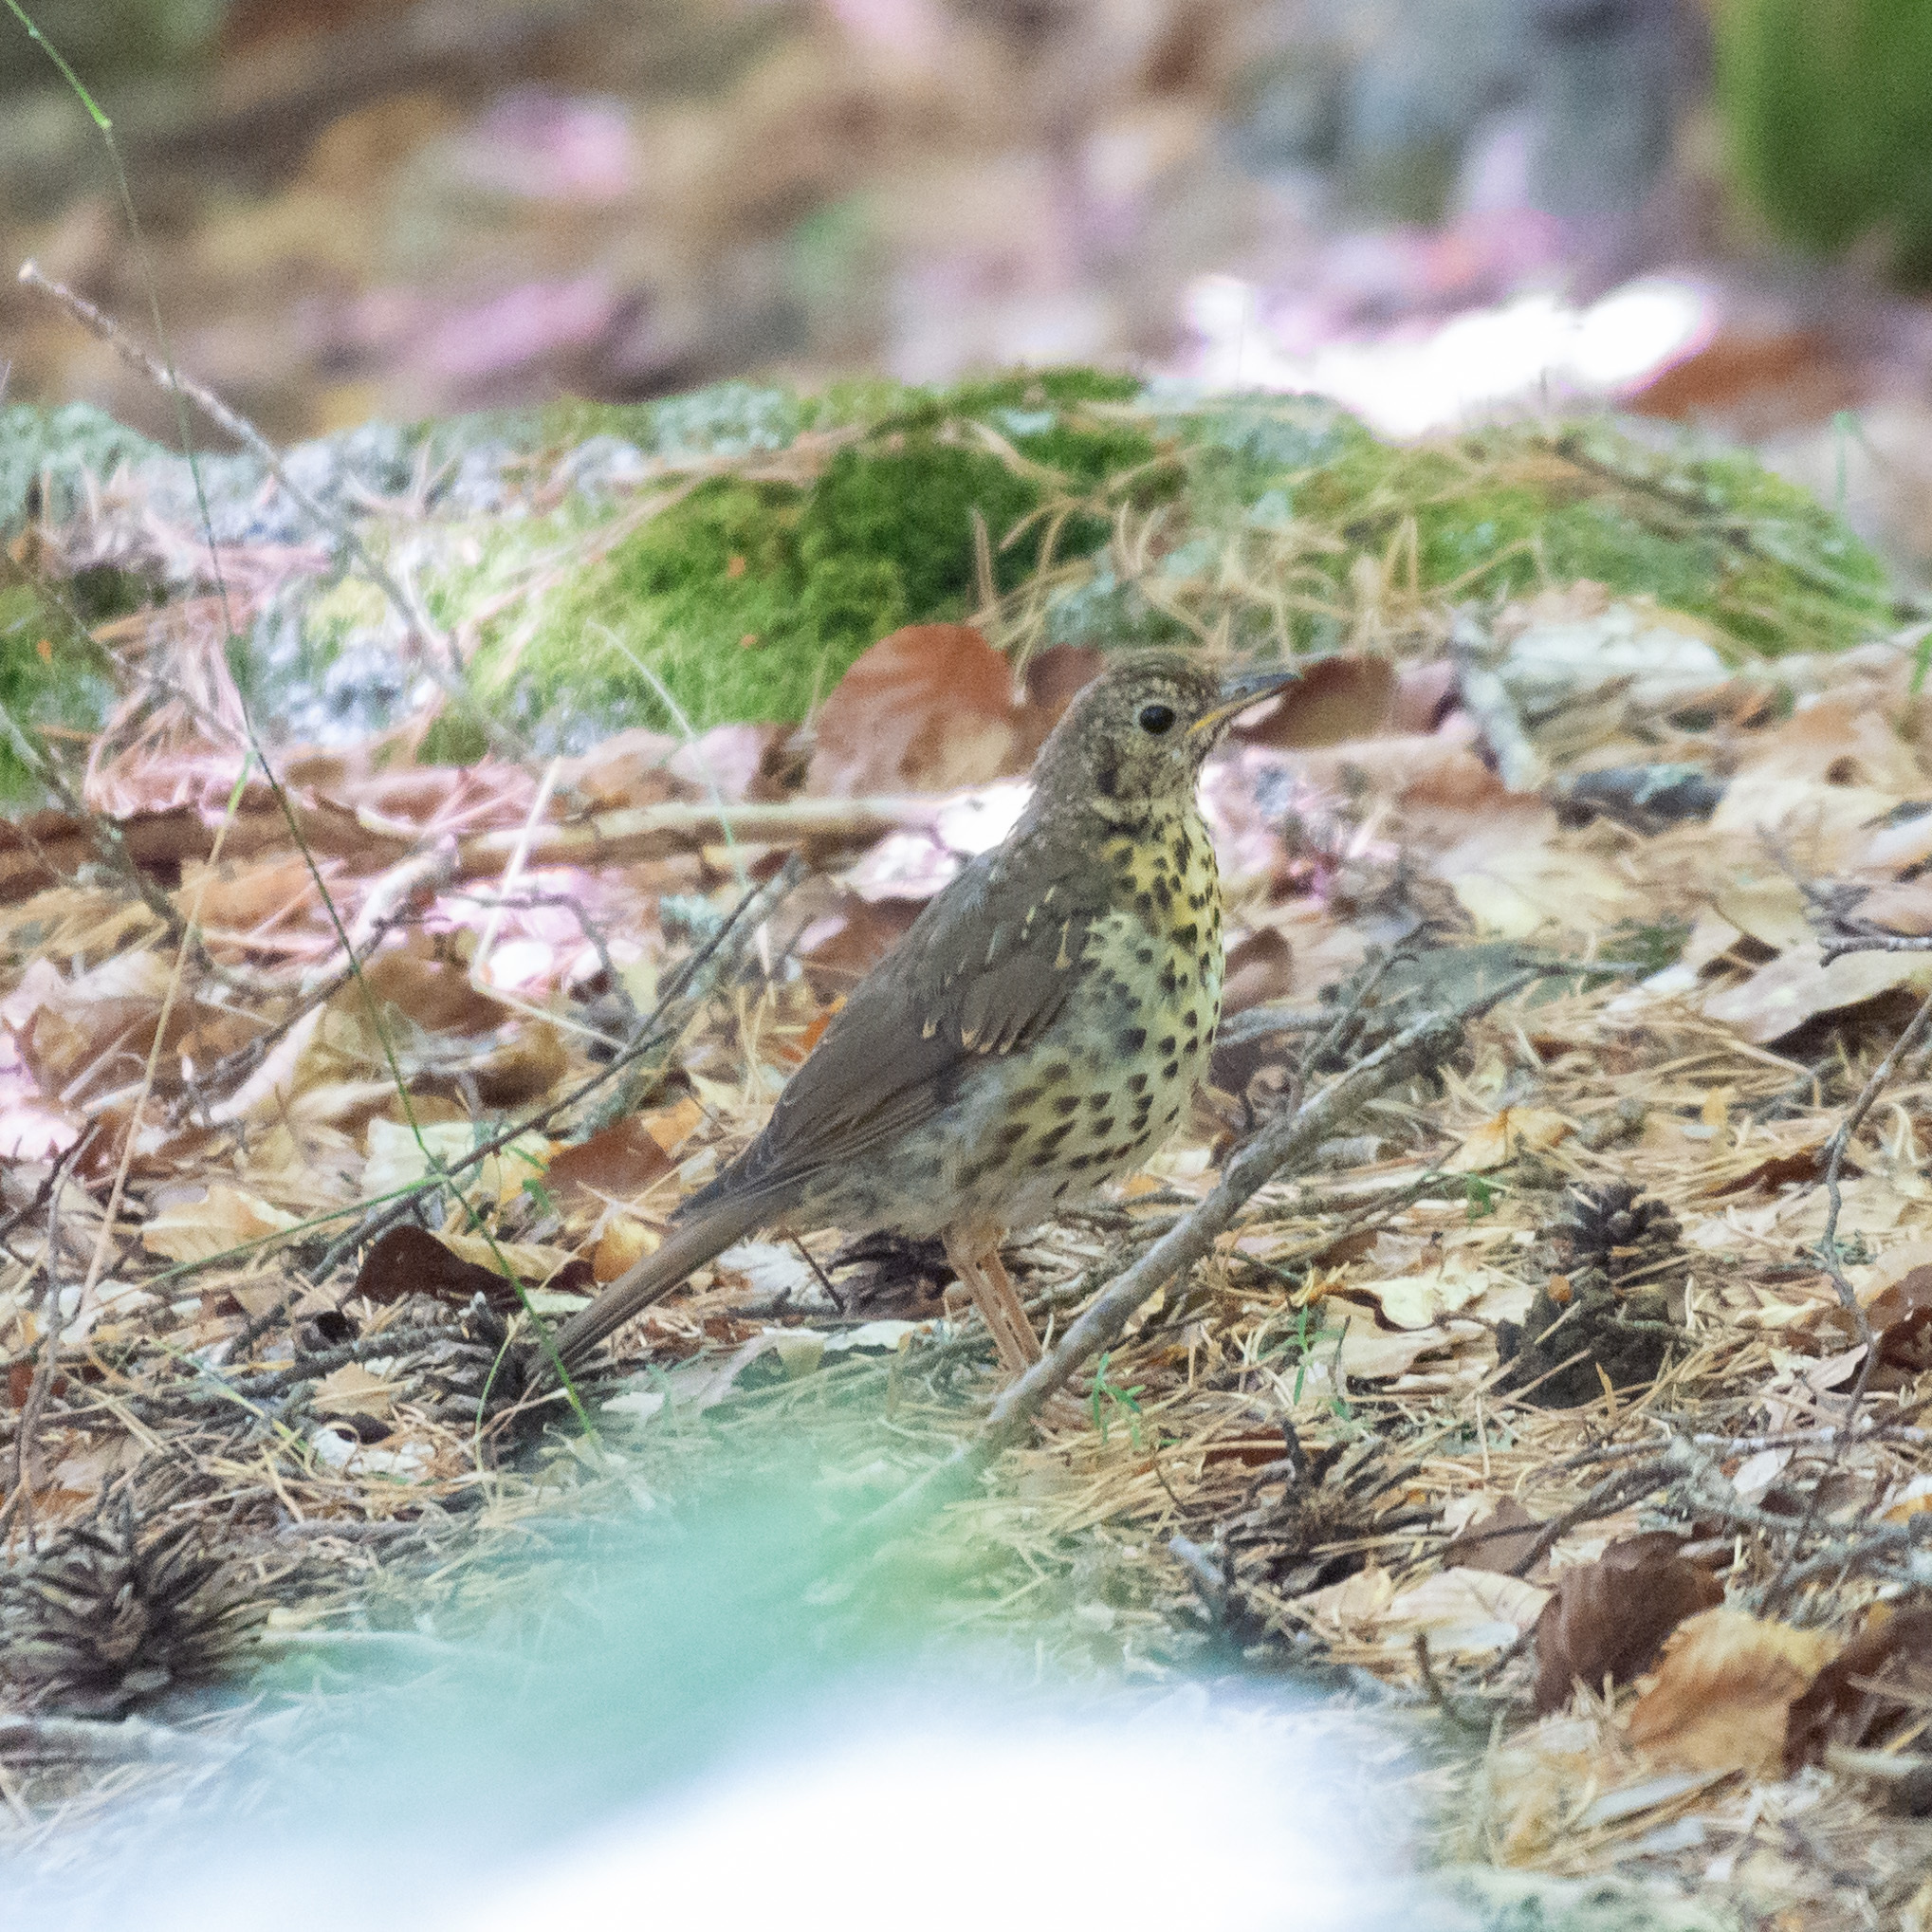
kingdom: Animalia
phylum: Chordata
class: Aves
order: Passeriformes
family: Turdidae
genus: Turdus
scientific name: Turdus philomelos
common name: Song thrush
